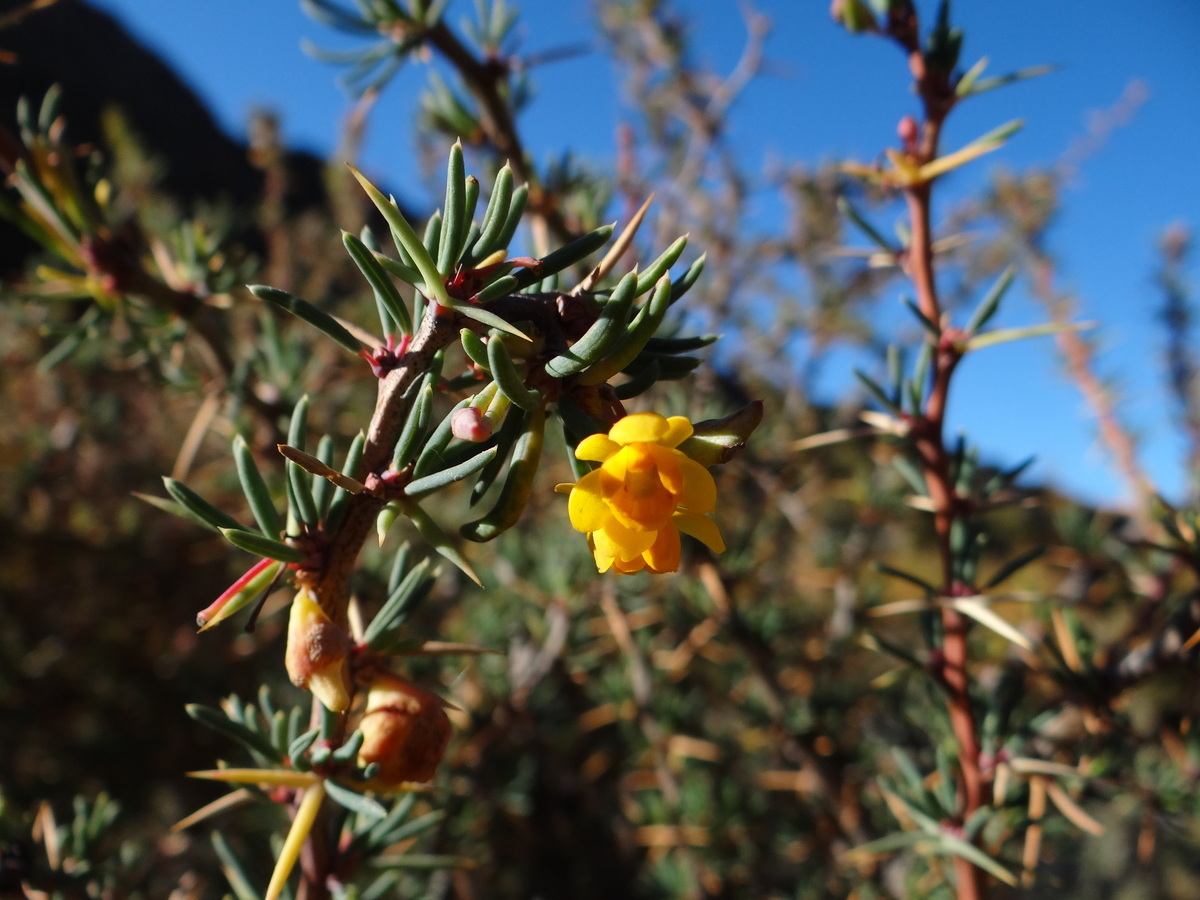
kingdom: Plantae
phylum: Tracheophyta
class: Magnoliopsida
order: Ranunculales
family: Berberidaceae
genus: Berberis
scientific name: Berberis empetrifolia
